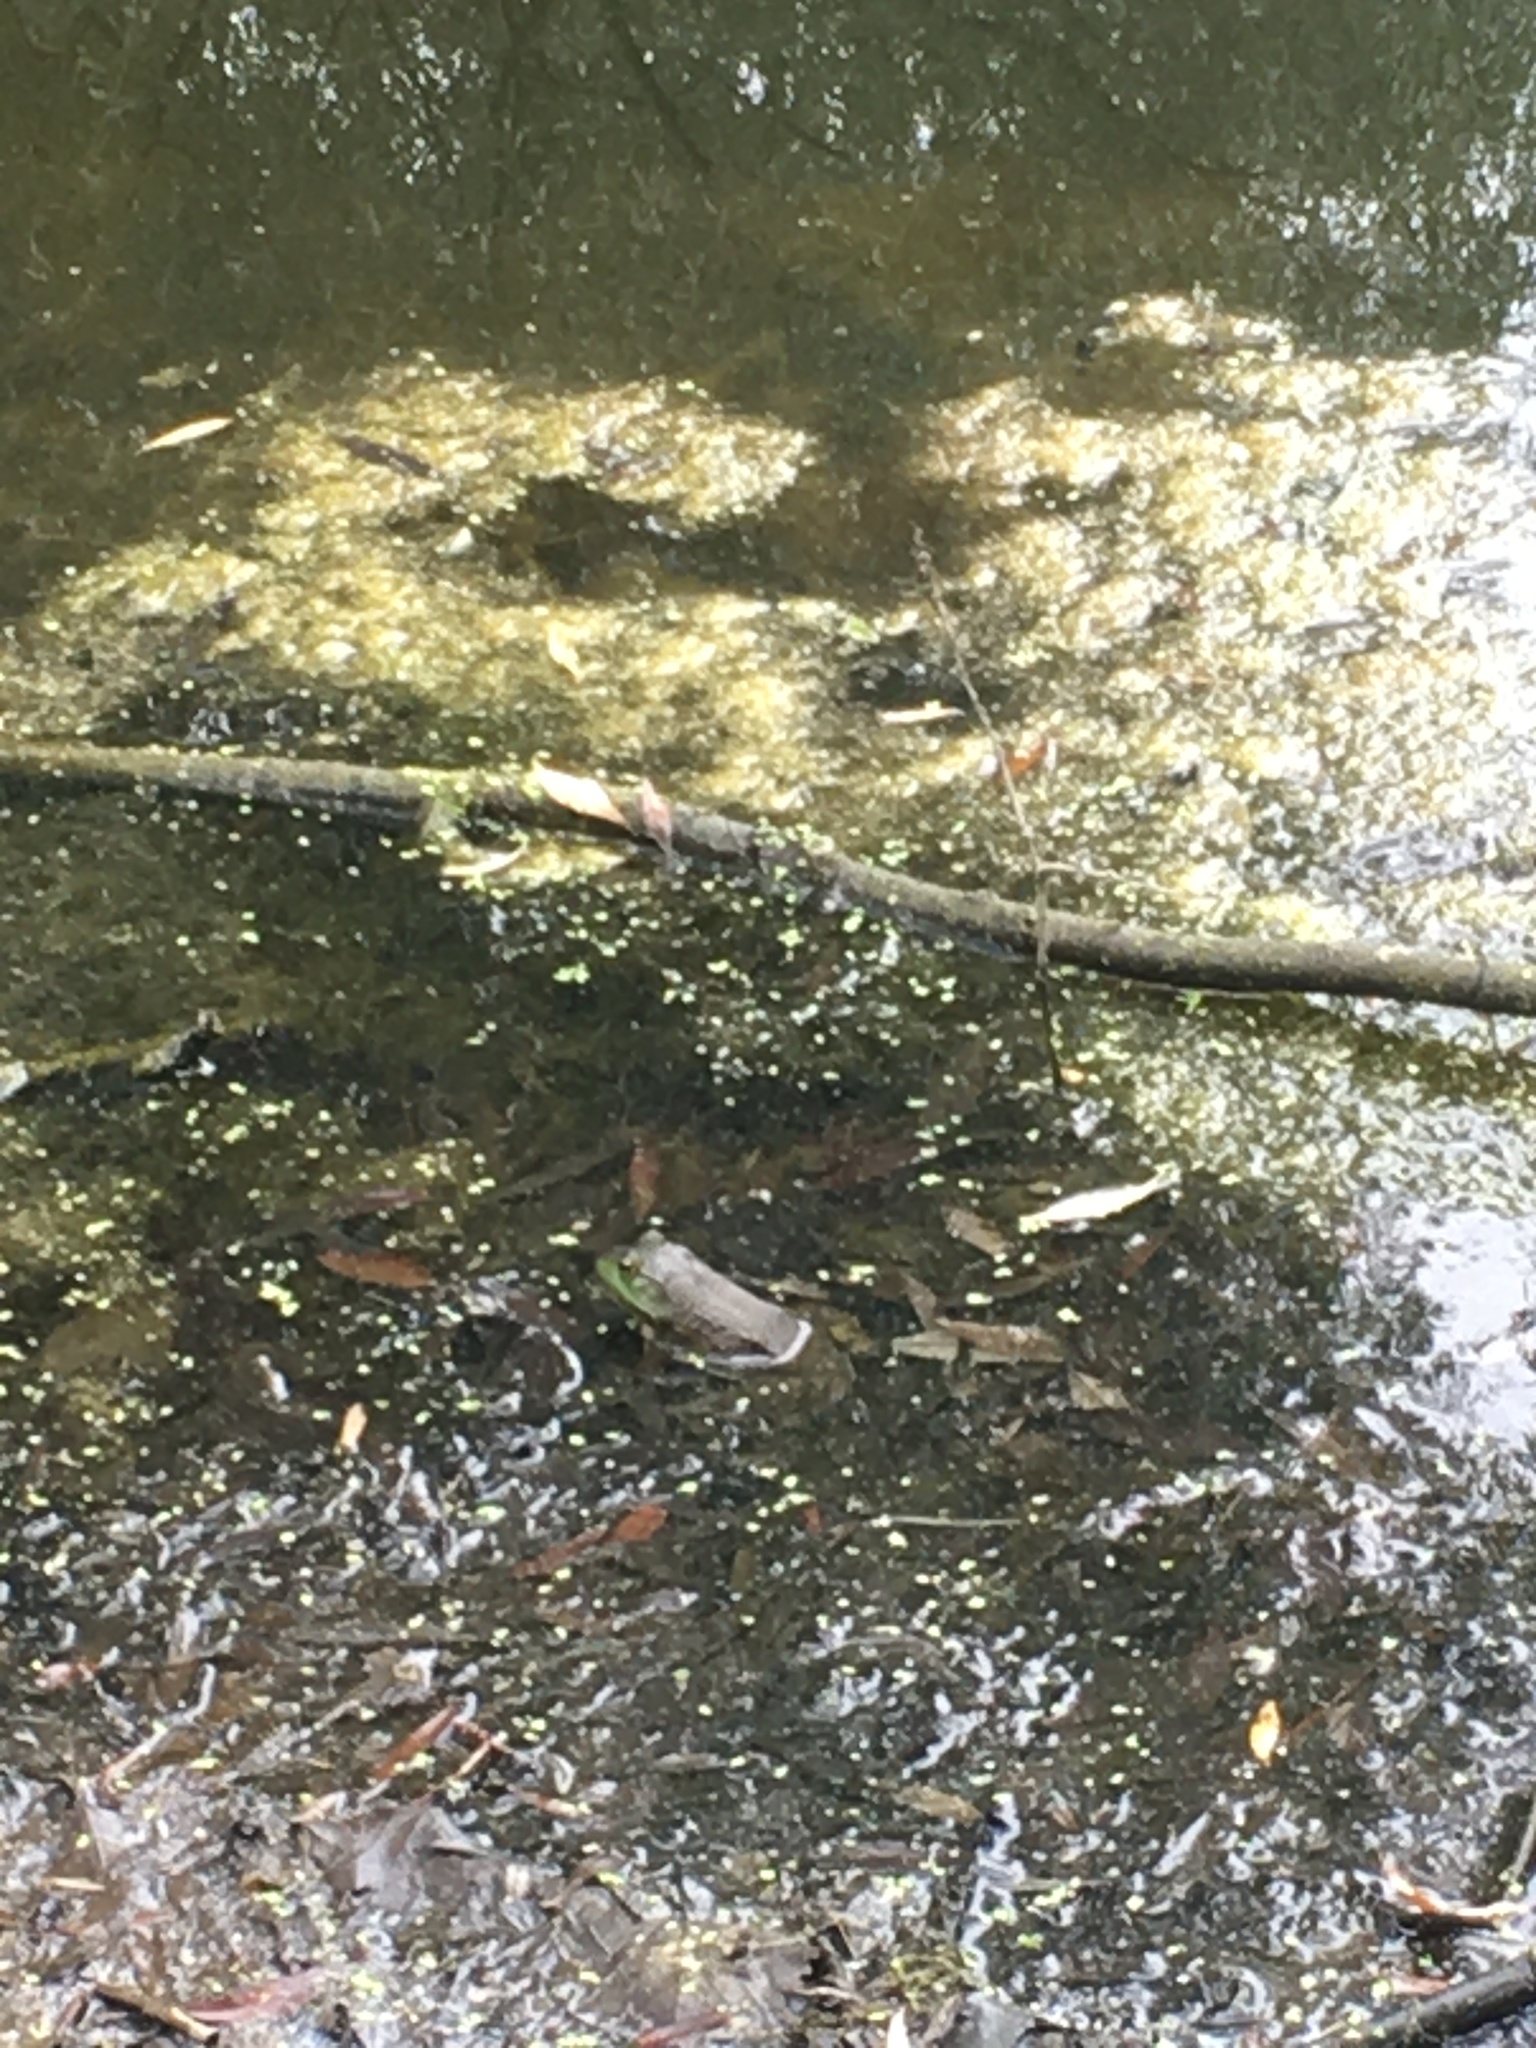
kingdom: Animalia
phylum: Chordata
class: Amphibia
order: Anura
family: Ranidae
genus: Lithobates
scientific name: Lithobates catesbeianus
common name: American bullfrog
